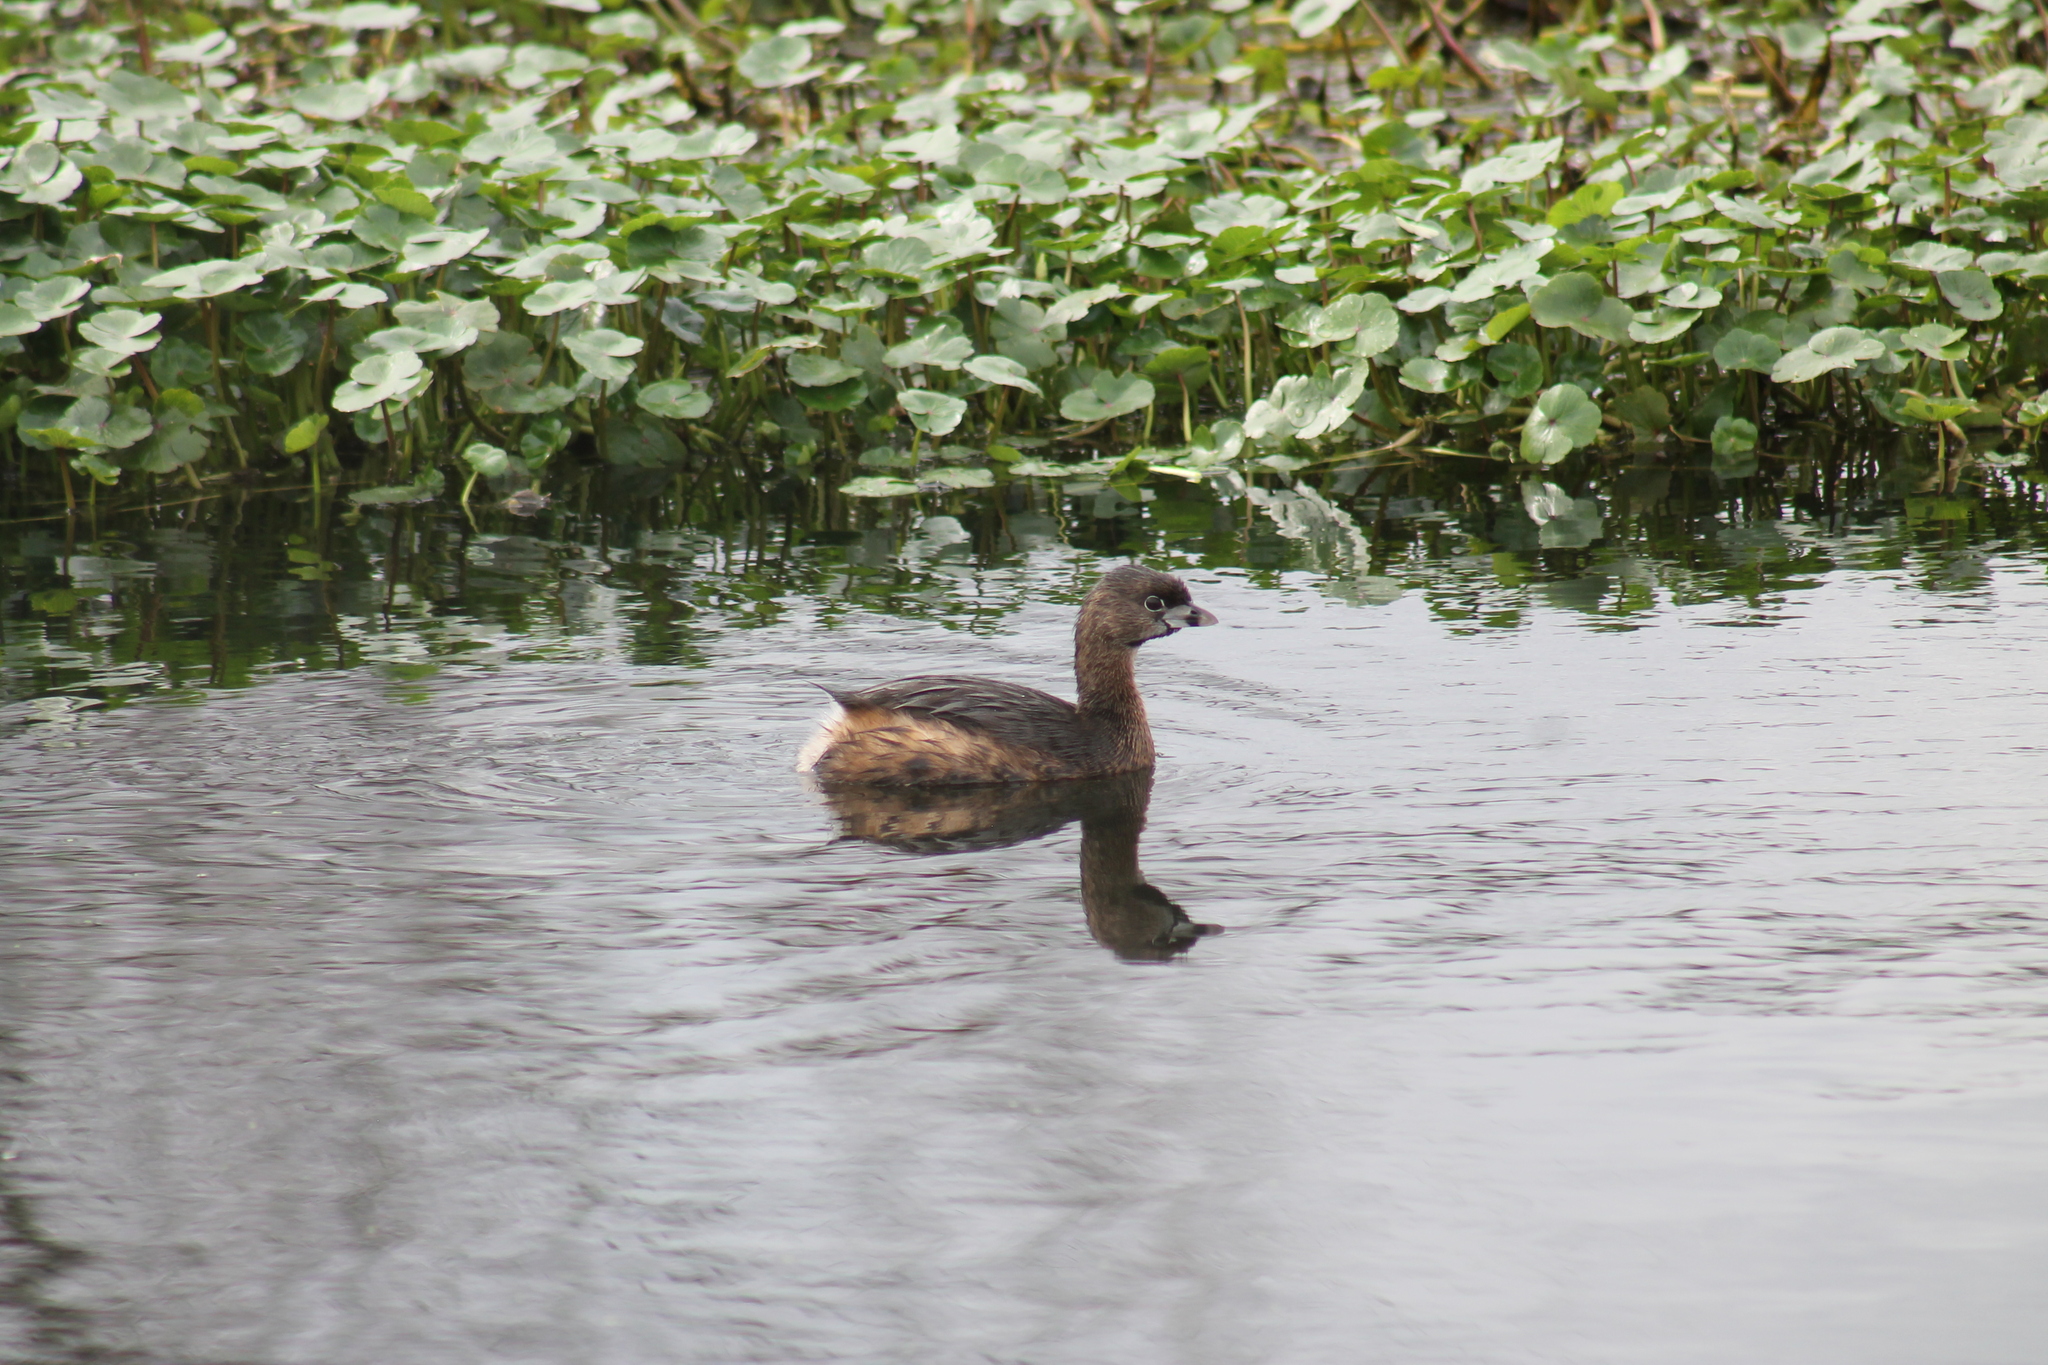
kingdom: Animalia
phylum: Chordata
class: Aves
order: Podicipediformes
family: Podicipedidae
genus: Podilymbus
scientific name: Podilymbus podiceps
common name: Pied-billed grebe
